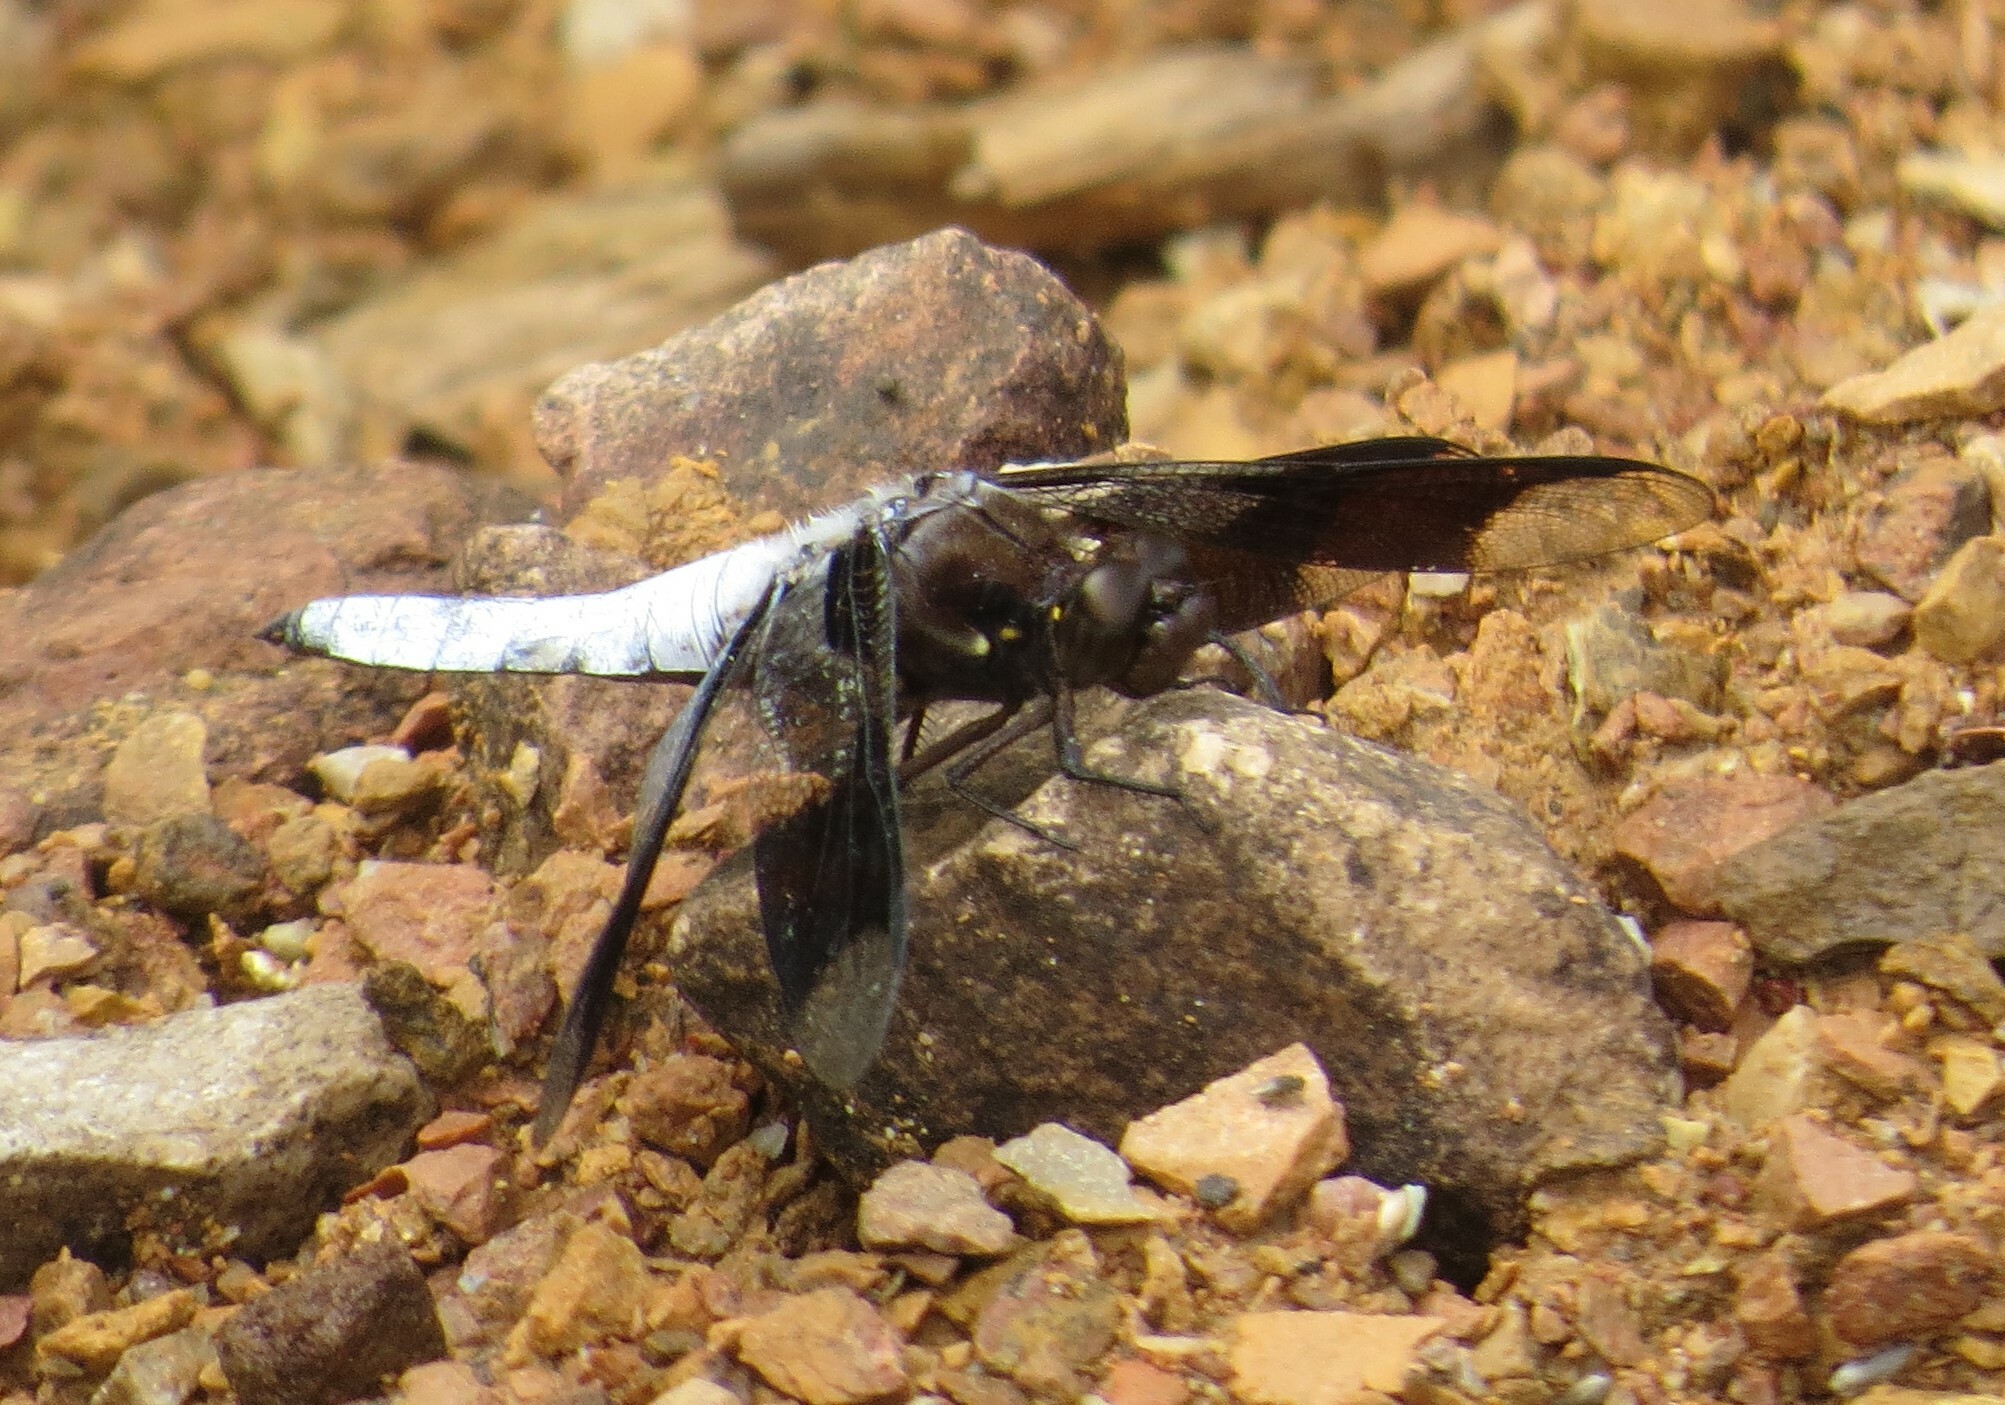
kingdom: Animalia
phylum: Arthropoda
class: Insecta
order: Odonata
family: Libellulidae
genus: Plathemis
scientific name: Plathemis lydia
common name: Common whitetail
